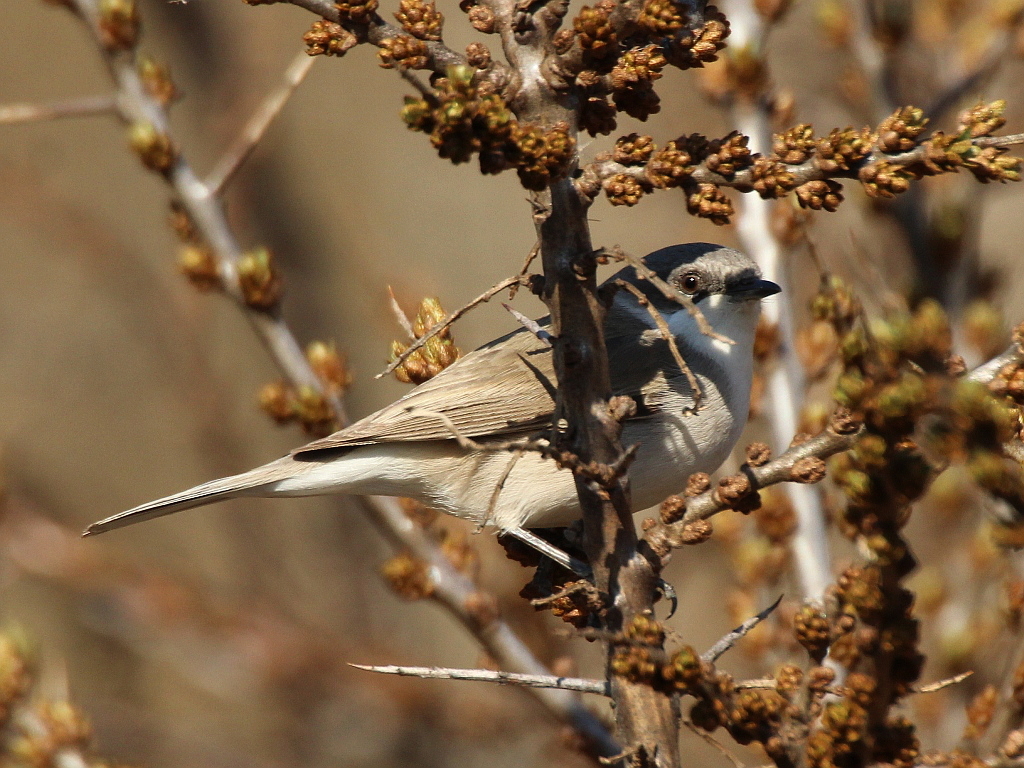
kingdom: Animalia
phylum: Chordata
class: Aves
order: Passeriformes
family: Sylviidae
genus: Sylvia
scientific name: Sylvia curruca
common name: Lesser whitethroat
